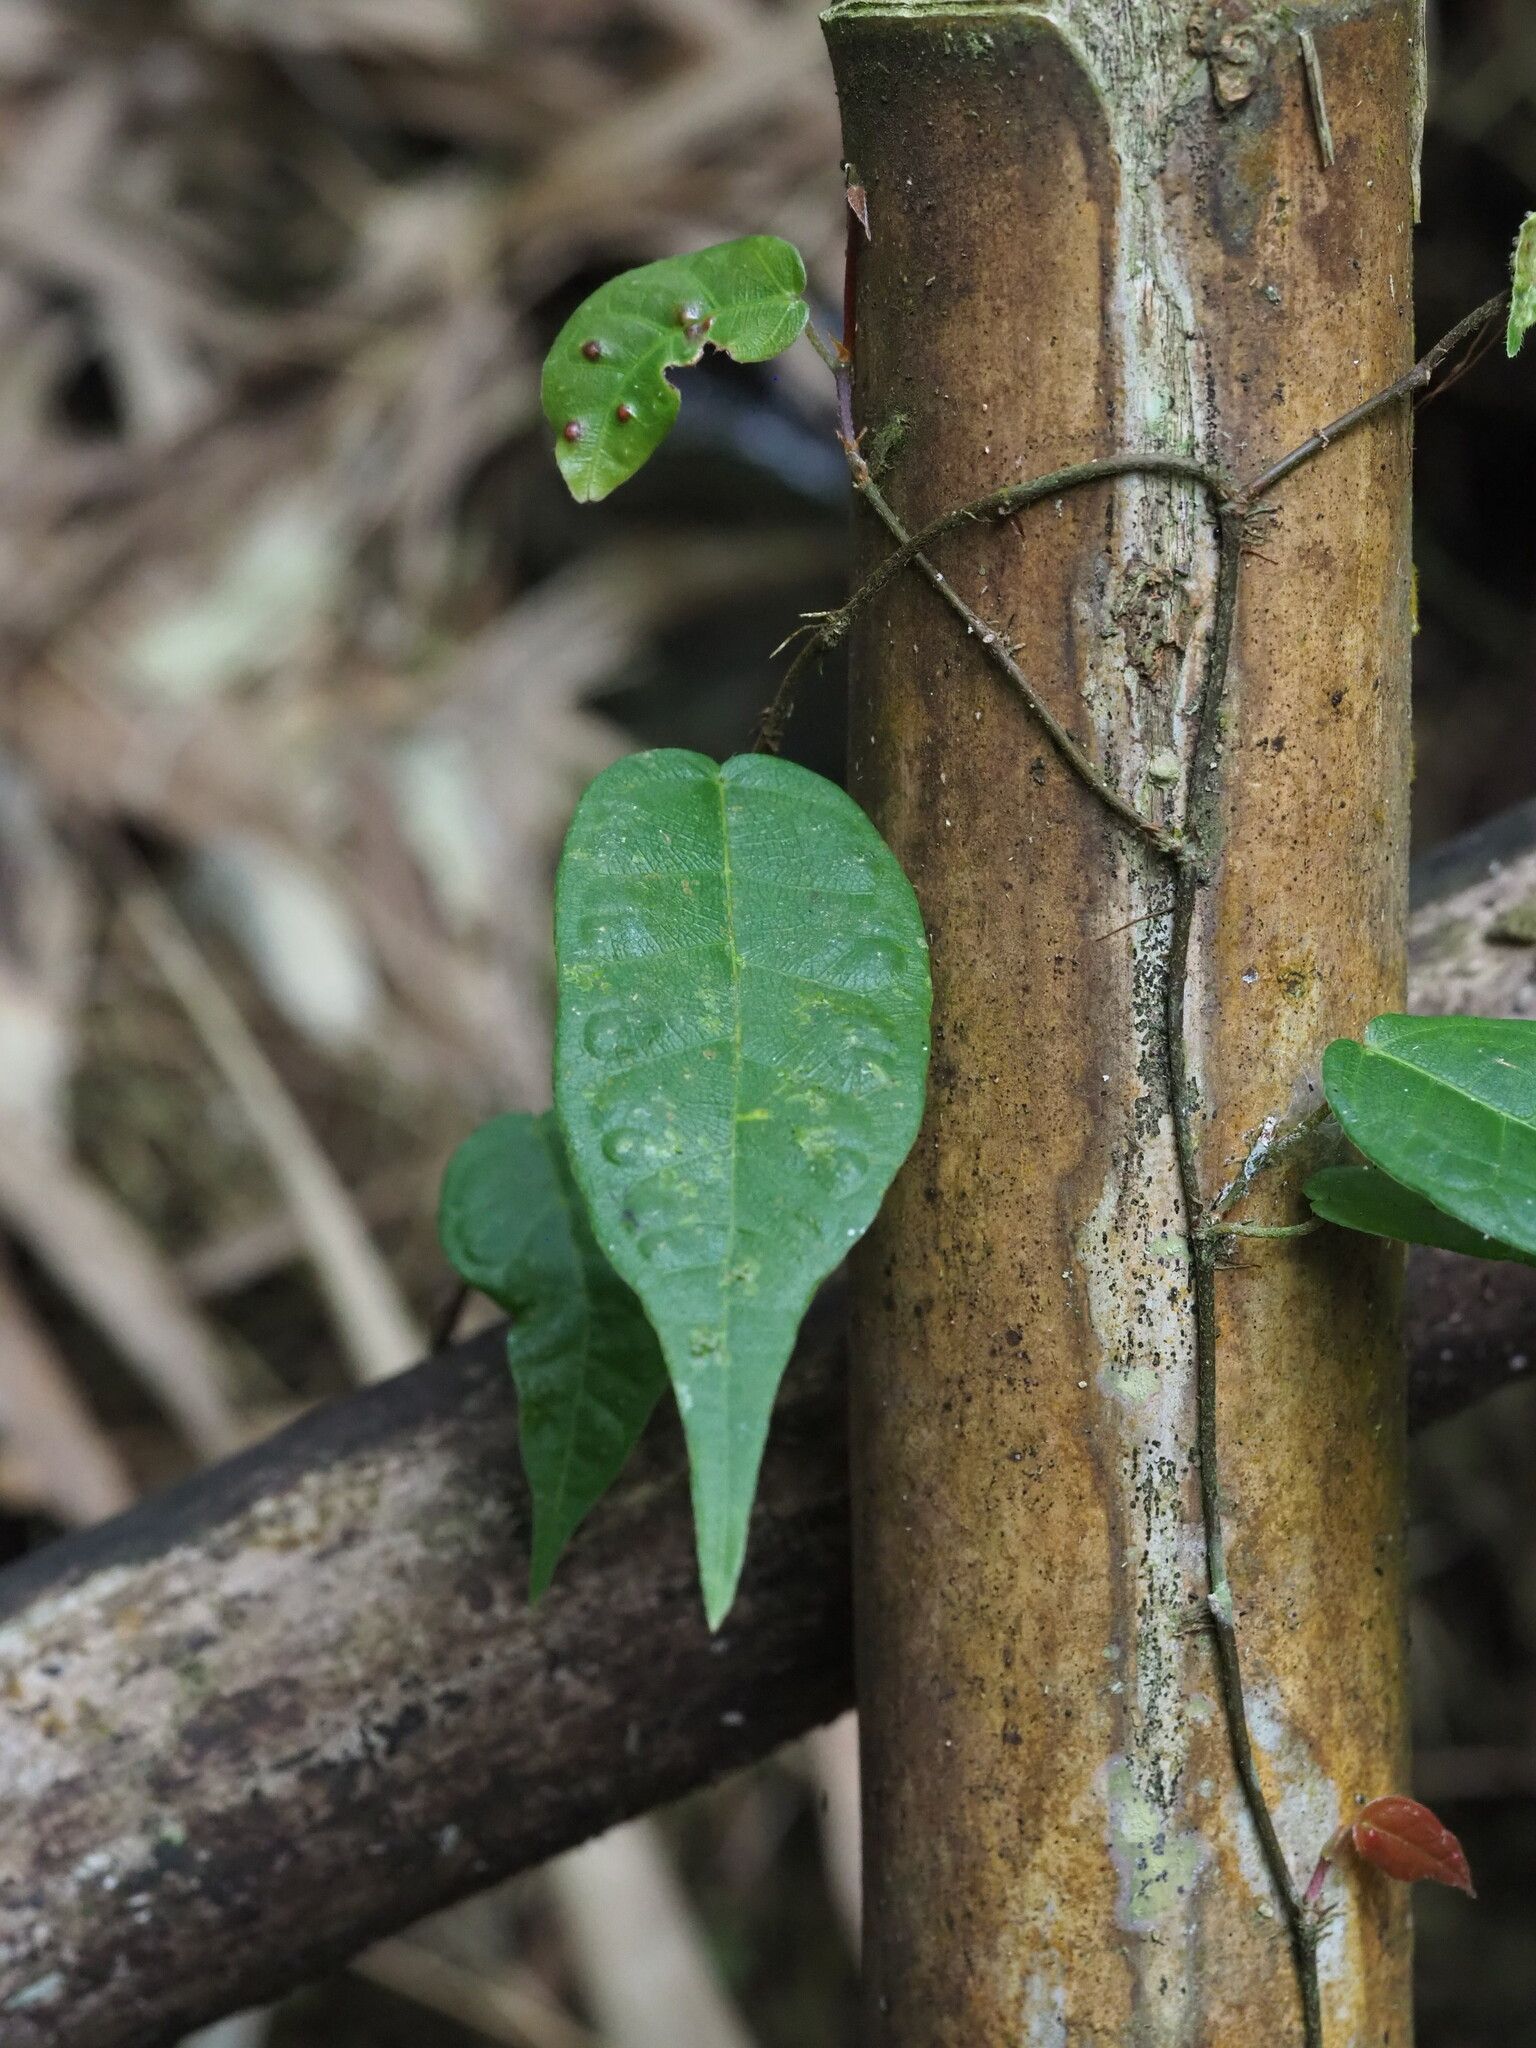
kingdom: Plantae
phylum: Tracheophyta
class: Magnoliopsida
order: Rosales
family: Moraceae
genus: Ficus
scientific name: Ficus sarmentosa
